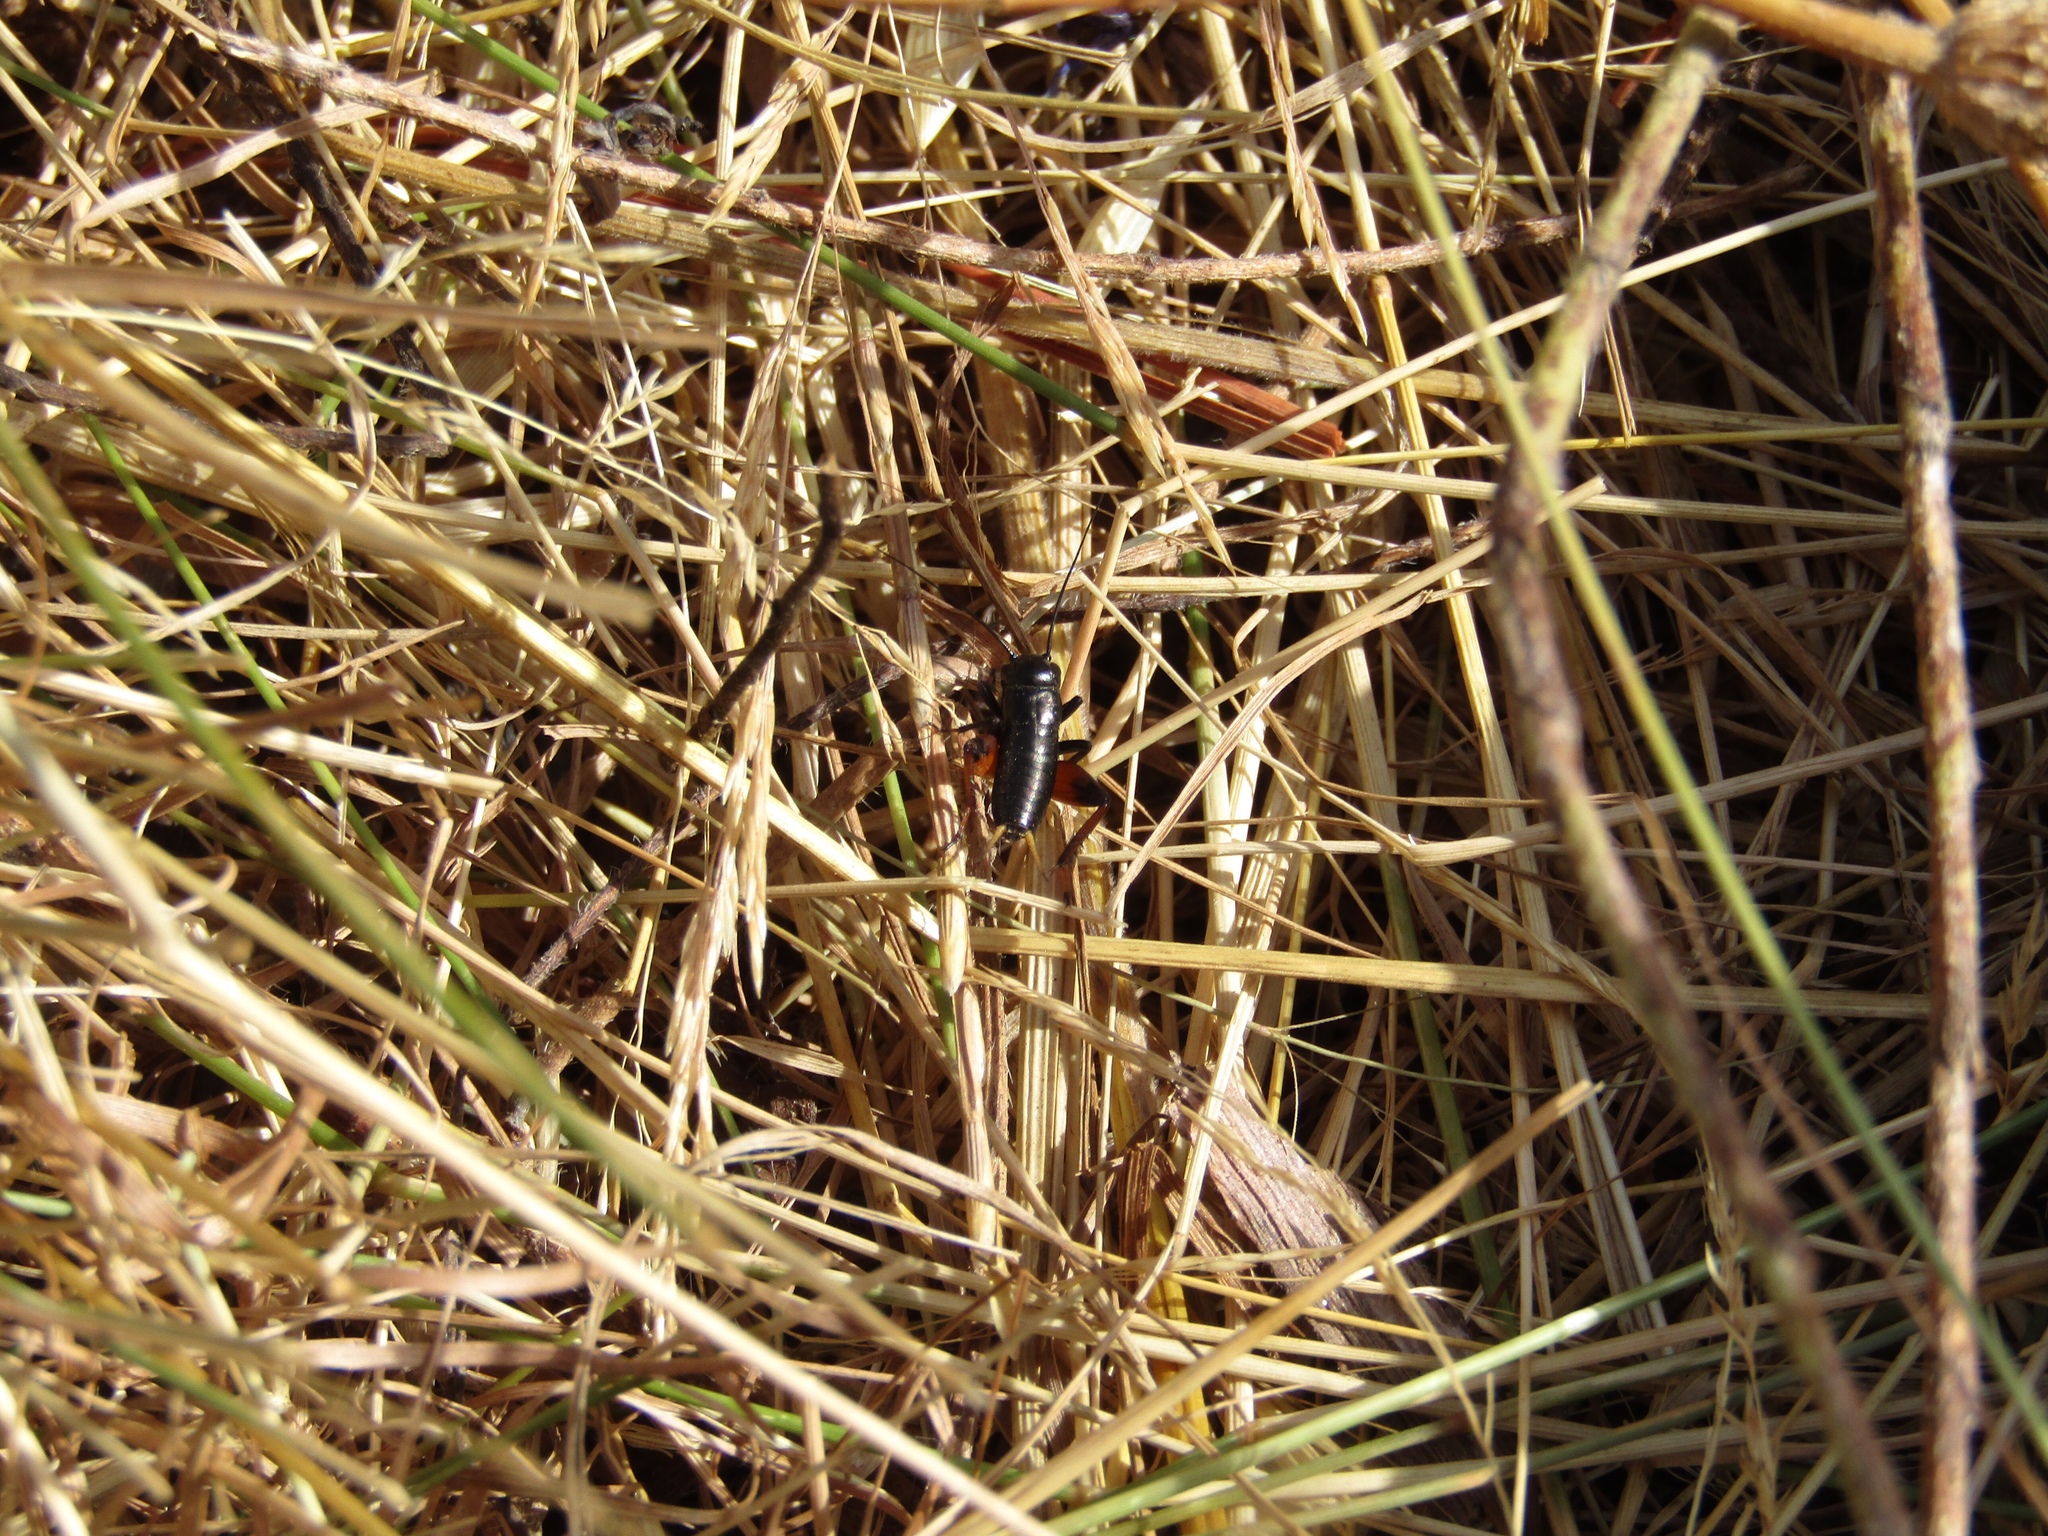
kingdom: Animalia
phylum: Arthropoda
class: Insecta
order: Orthoptera
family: Gryllidae
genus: Gryllus
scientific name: Gryllus campestris
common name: Field cricket
